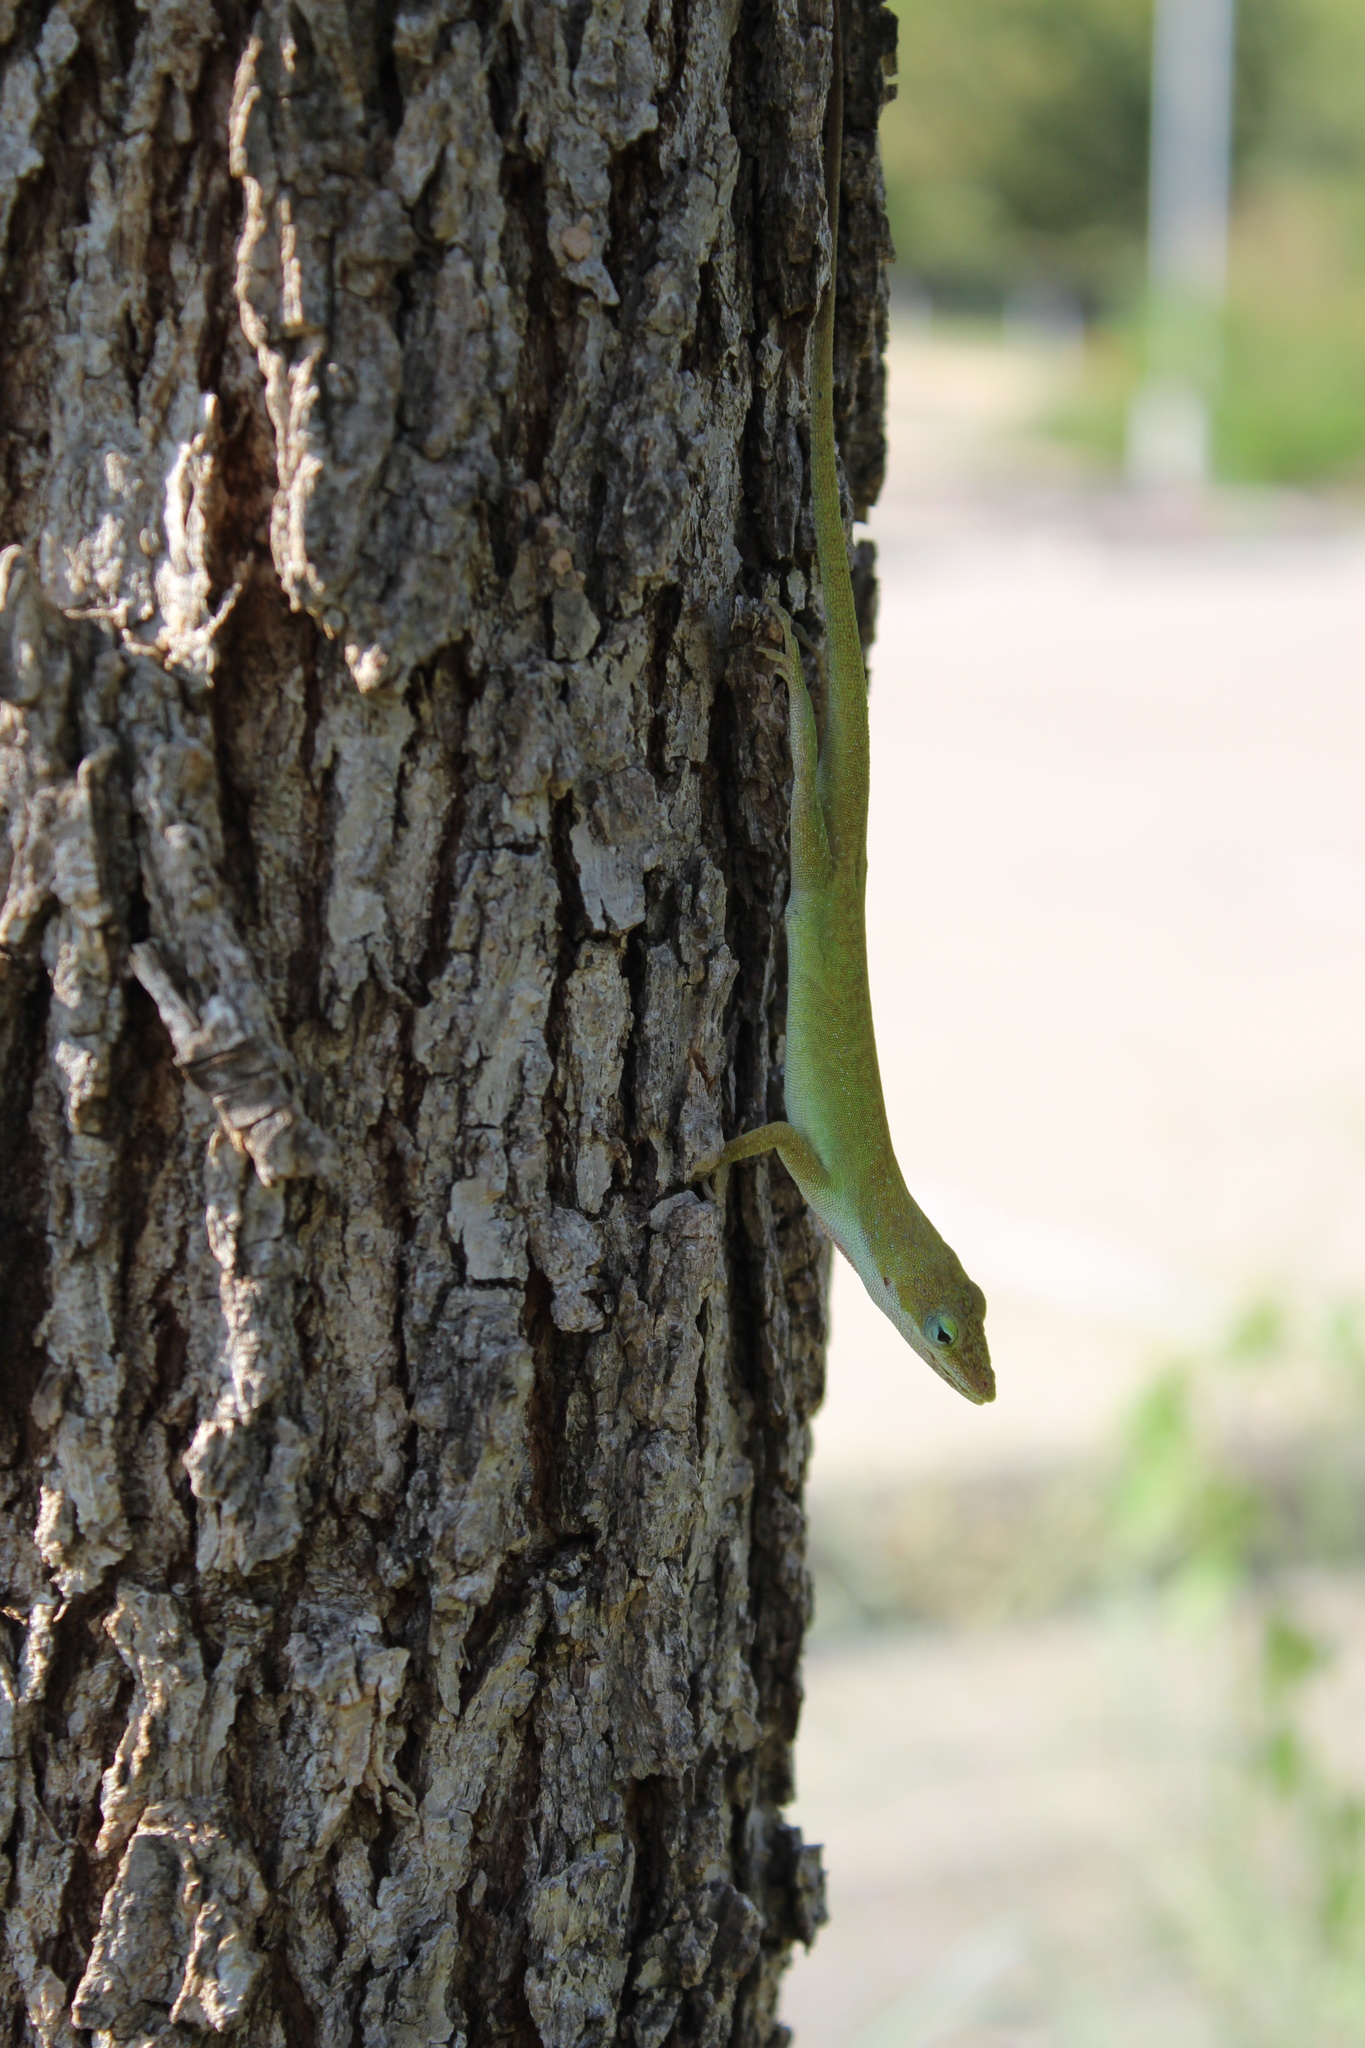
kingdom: Animalia
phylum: Chordata
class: Squamata
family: Dactyloidae
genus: Anolis
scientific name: Anolis carolinensis
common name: Green anole
